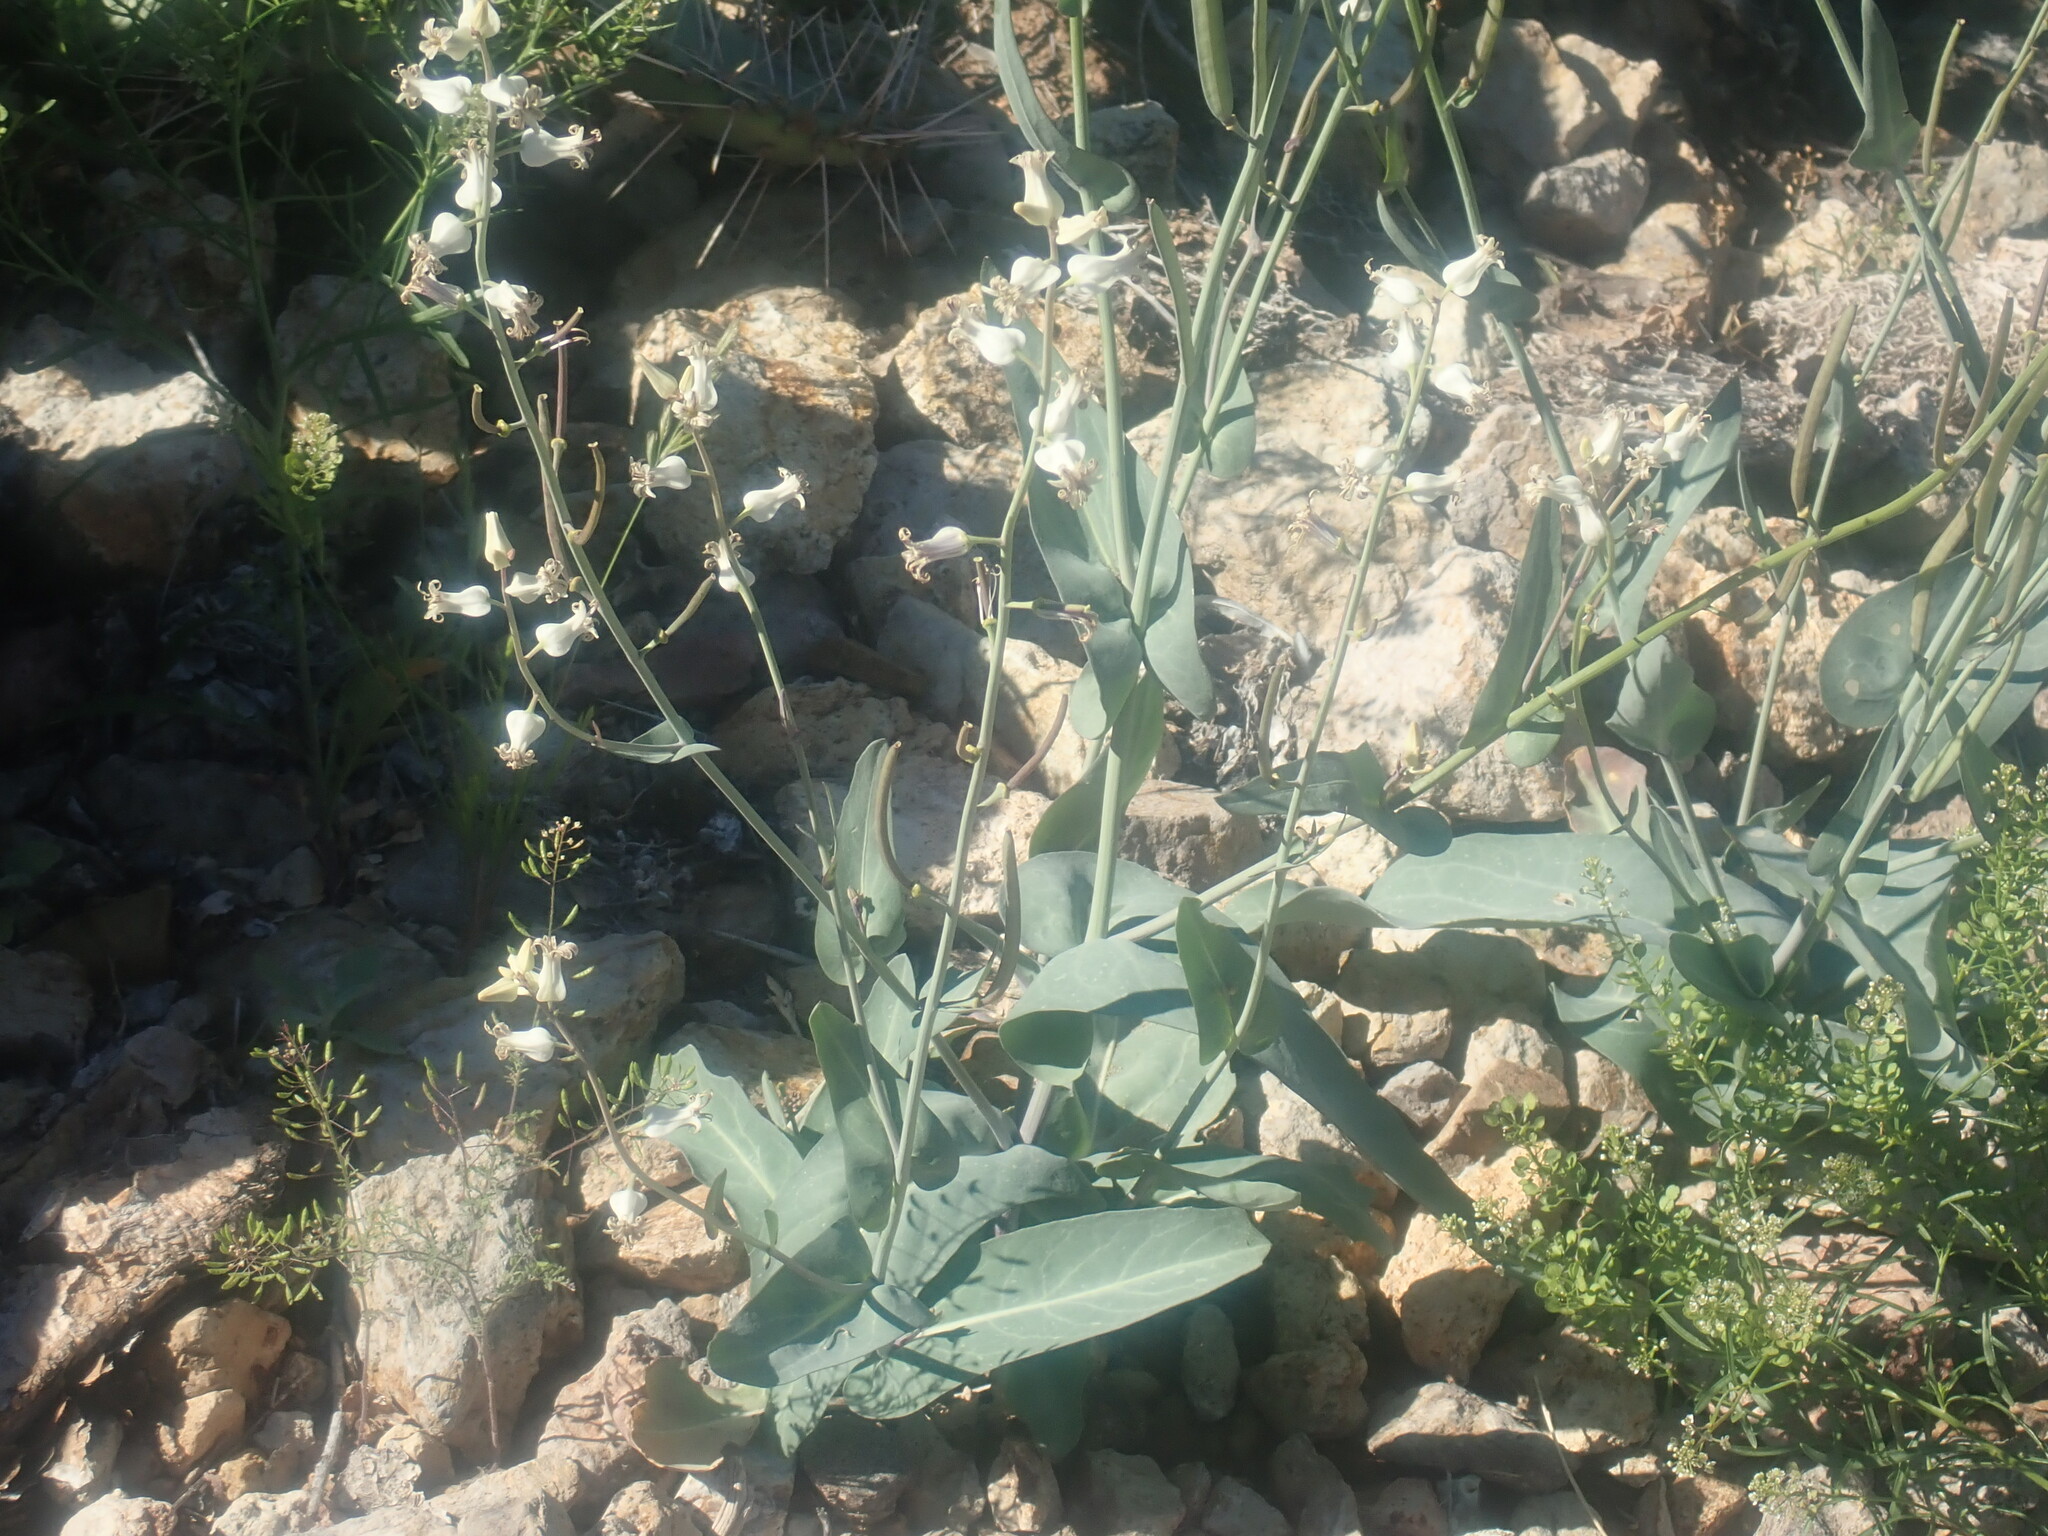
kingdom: Plantae
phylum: Tracheophyta
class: Magnoliopsida
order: Brassicales
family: Brassicaceae
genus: Streptanthus
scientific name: Streptanthus carinatus
